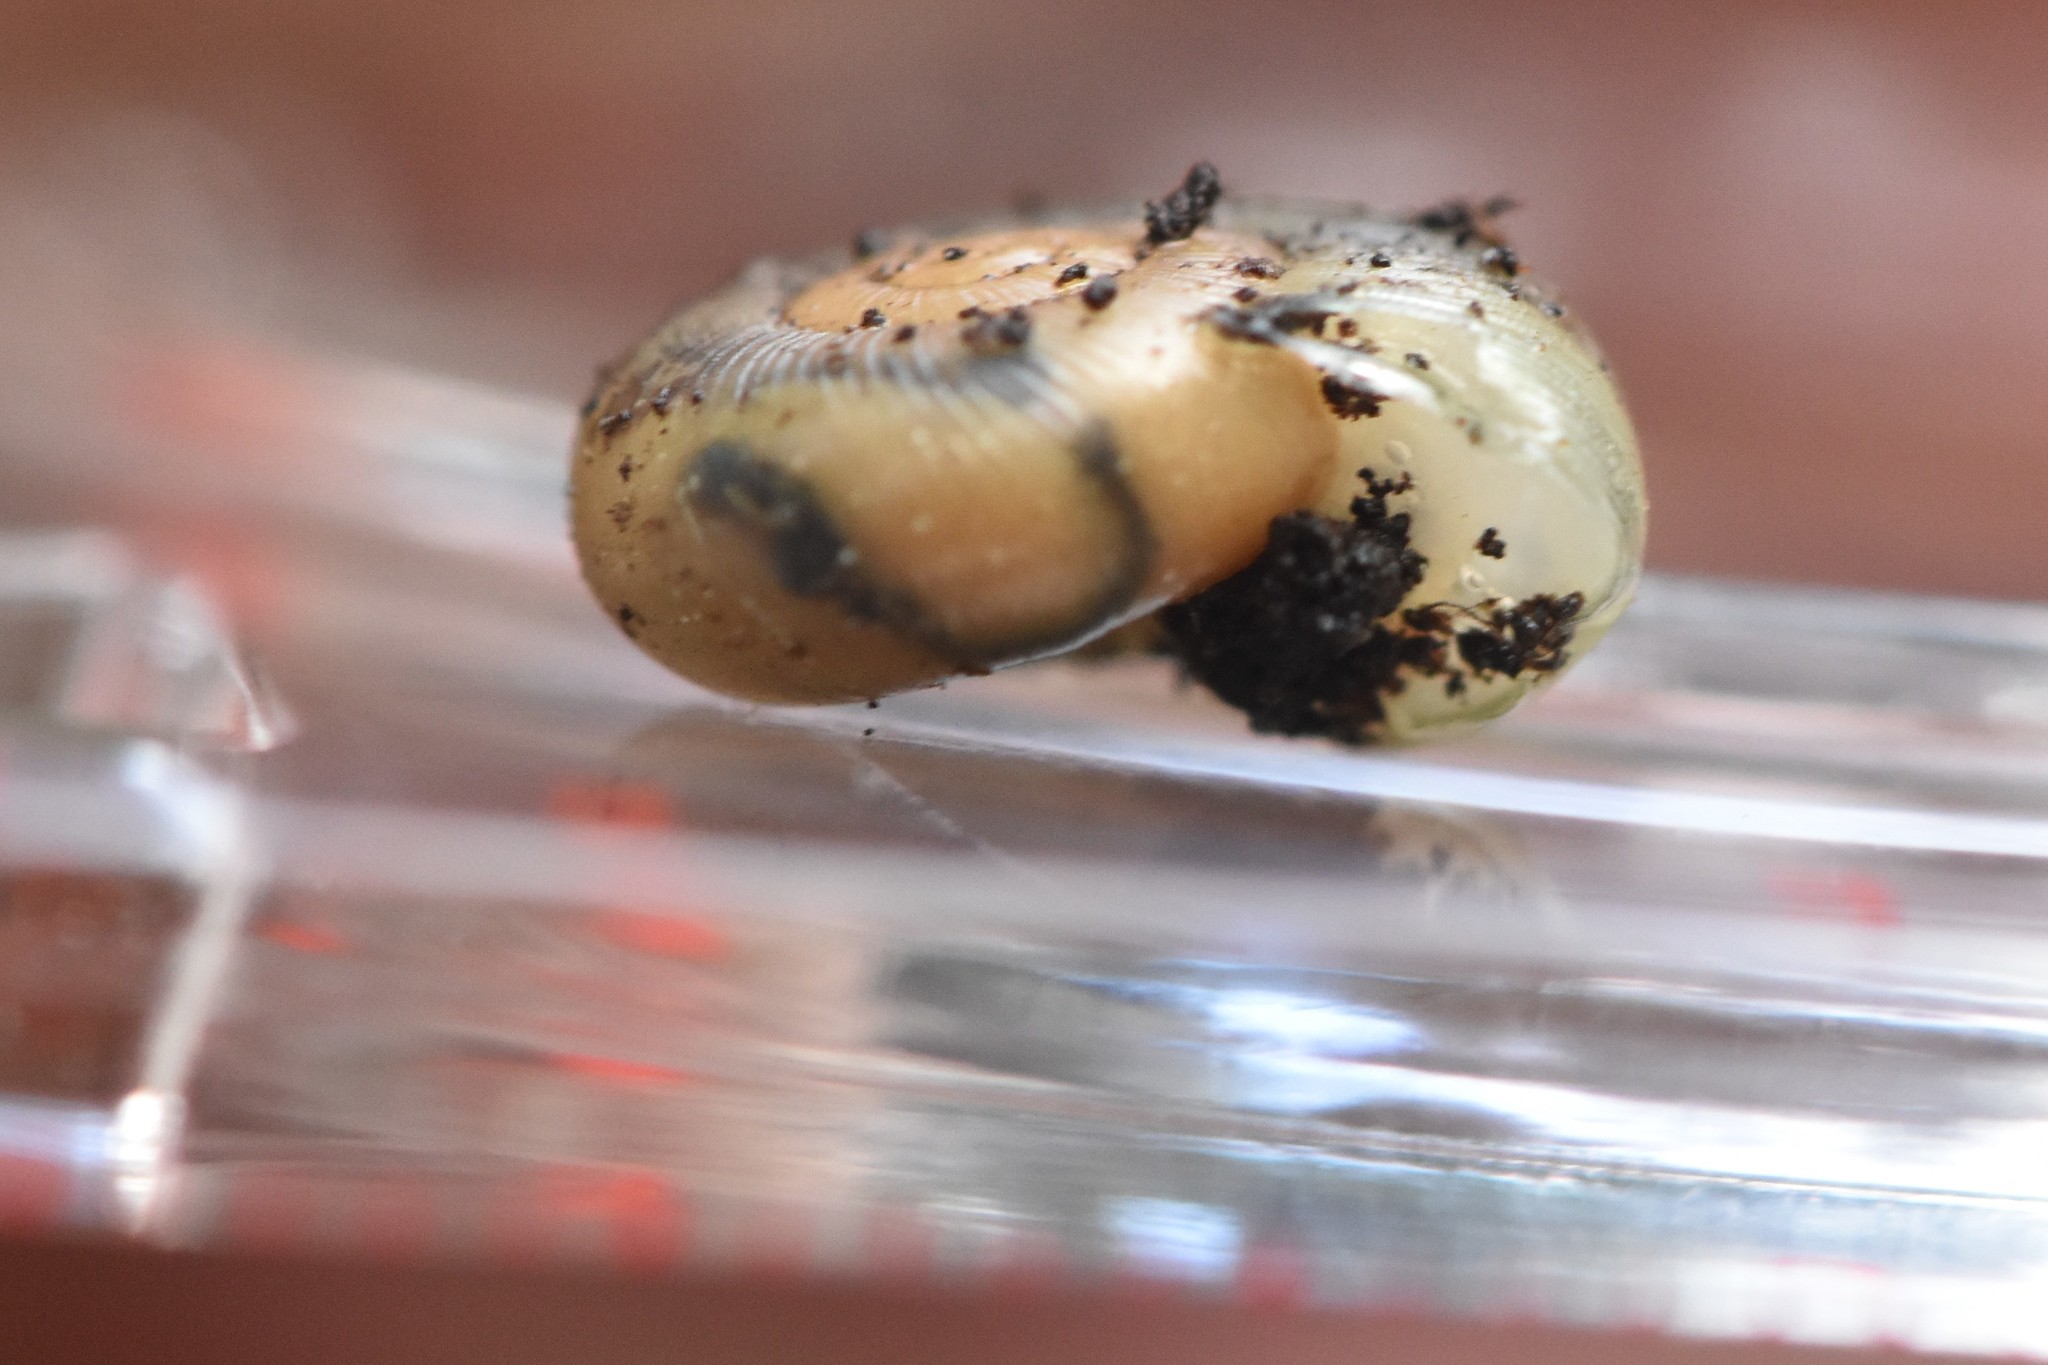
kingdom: Animalia
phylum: Mollusca
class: Gastropoda
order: Stylommatophora
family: Haplotrematidae
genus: Ancotrema
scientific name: Ancotrema sportella
